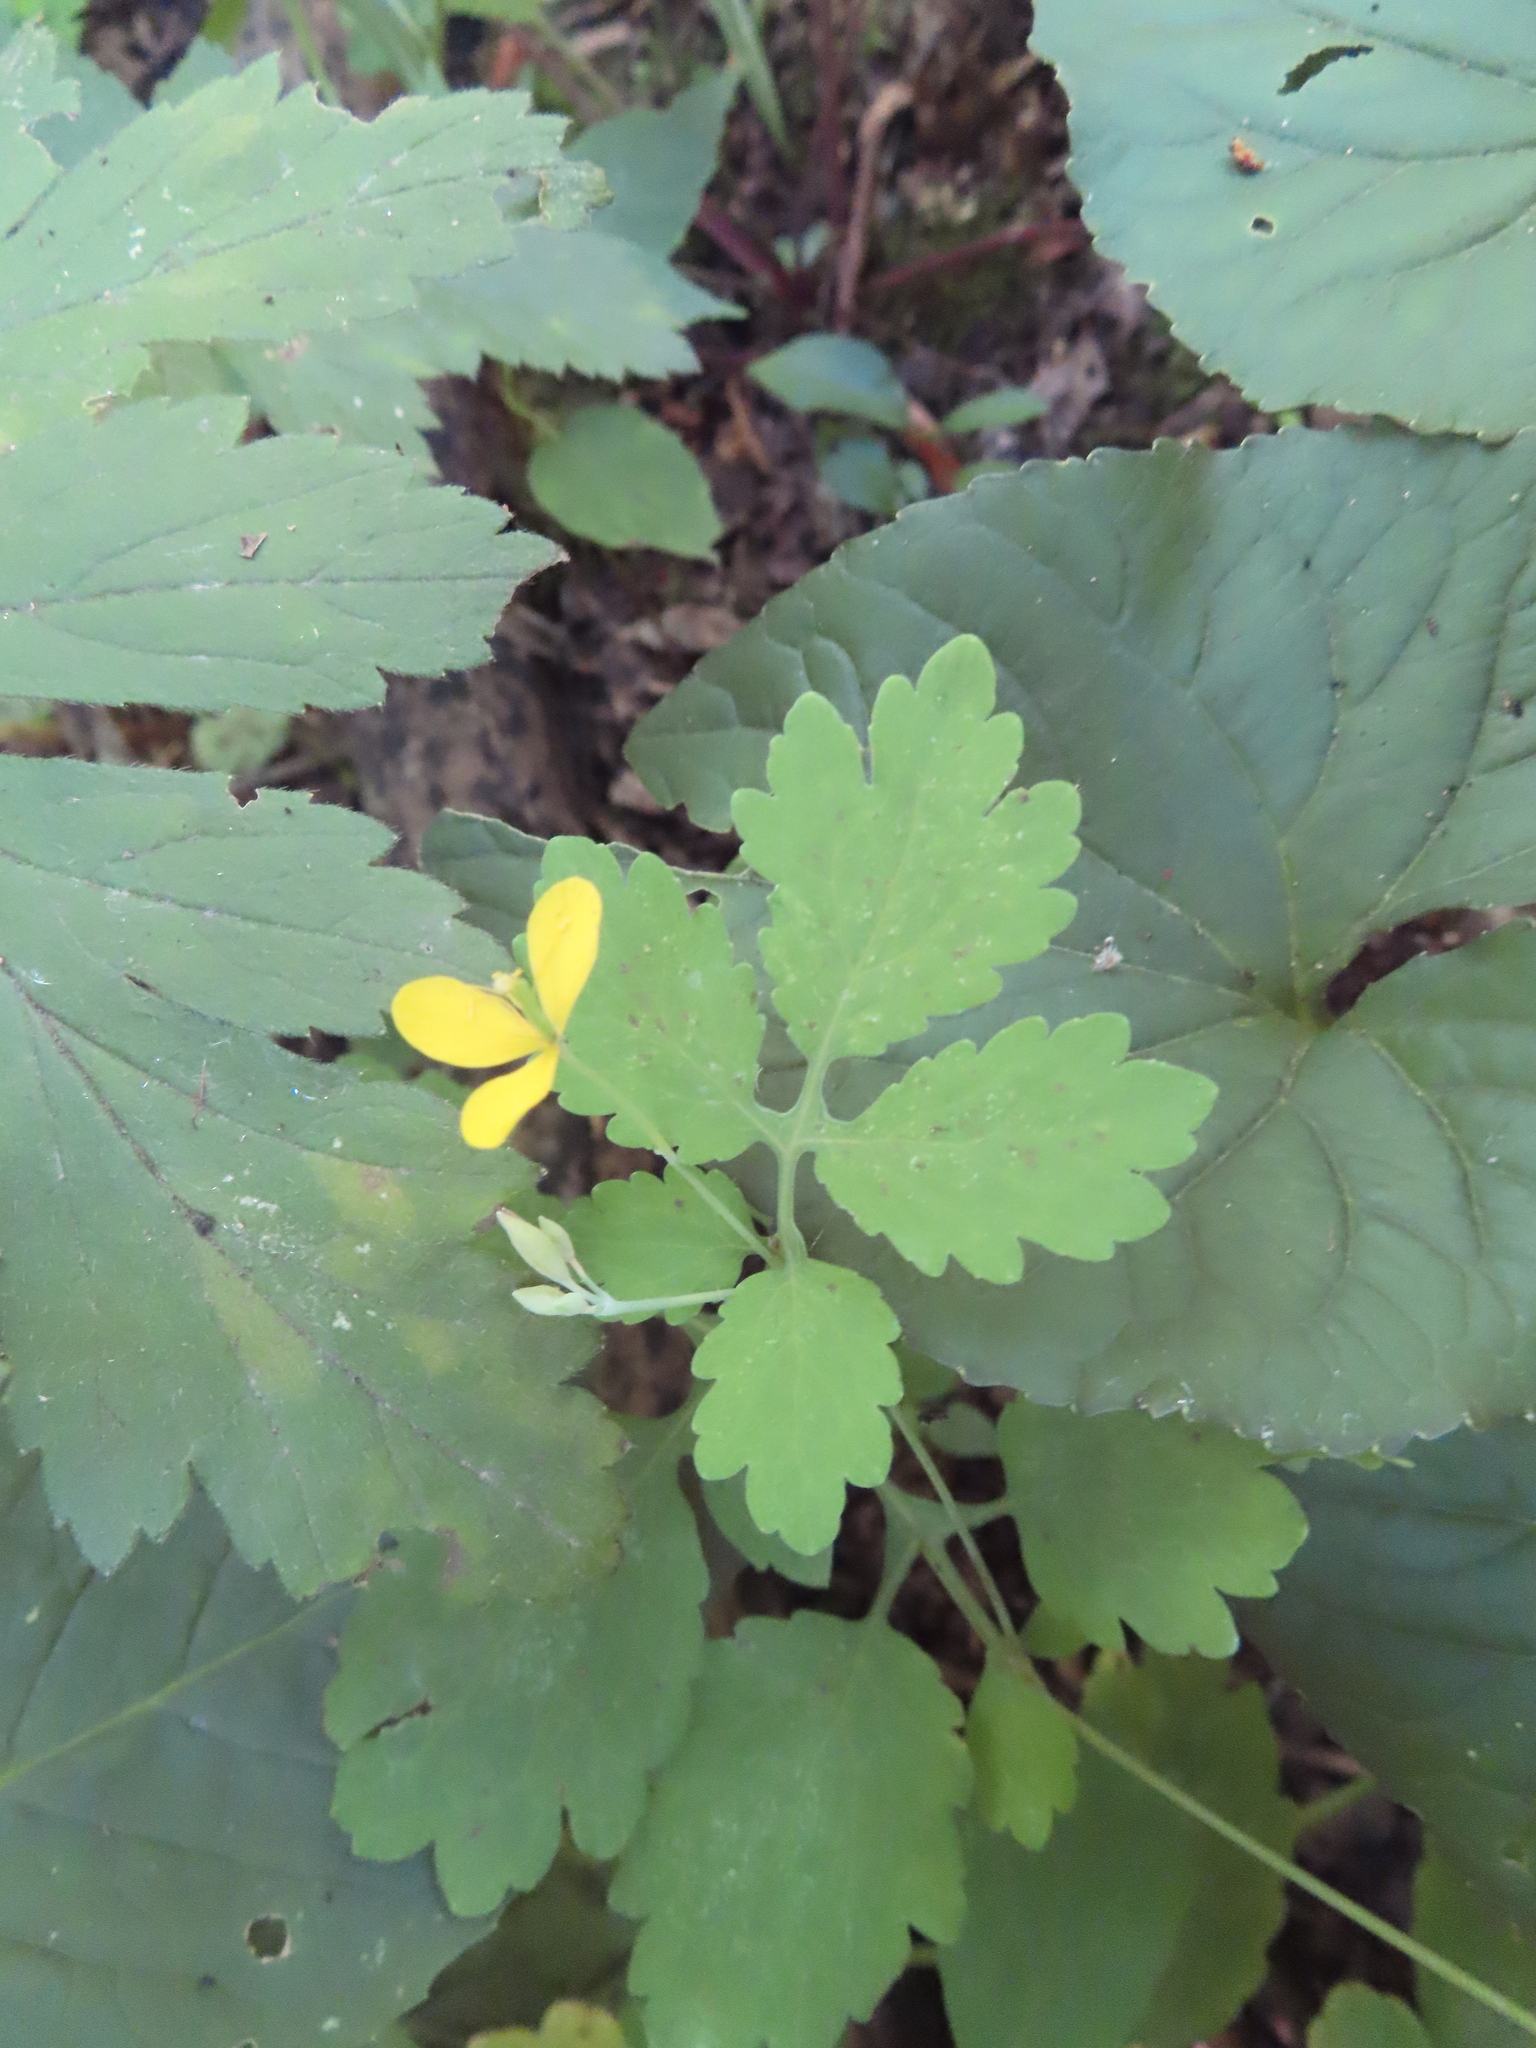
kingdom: Plantae
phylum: Tracheophyta
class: Magnoliopsida
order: Ranunculales
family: Papaveraceae
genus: Chelidonium
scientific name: Chelidonium majus
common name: Greater celandine
